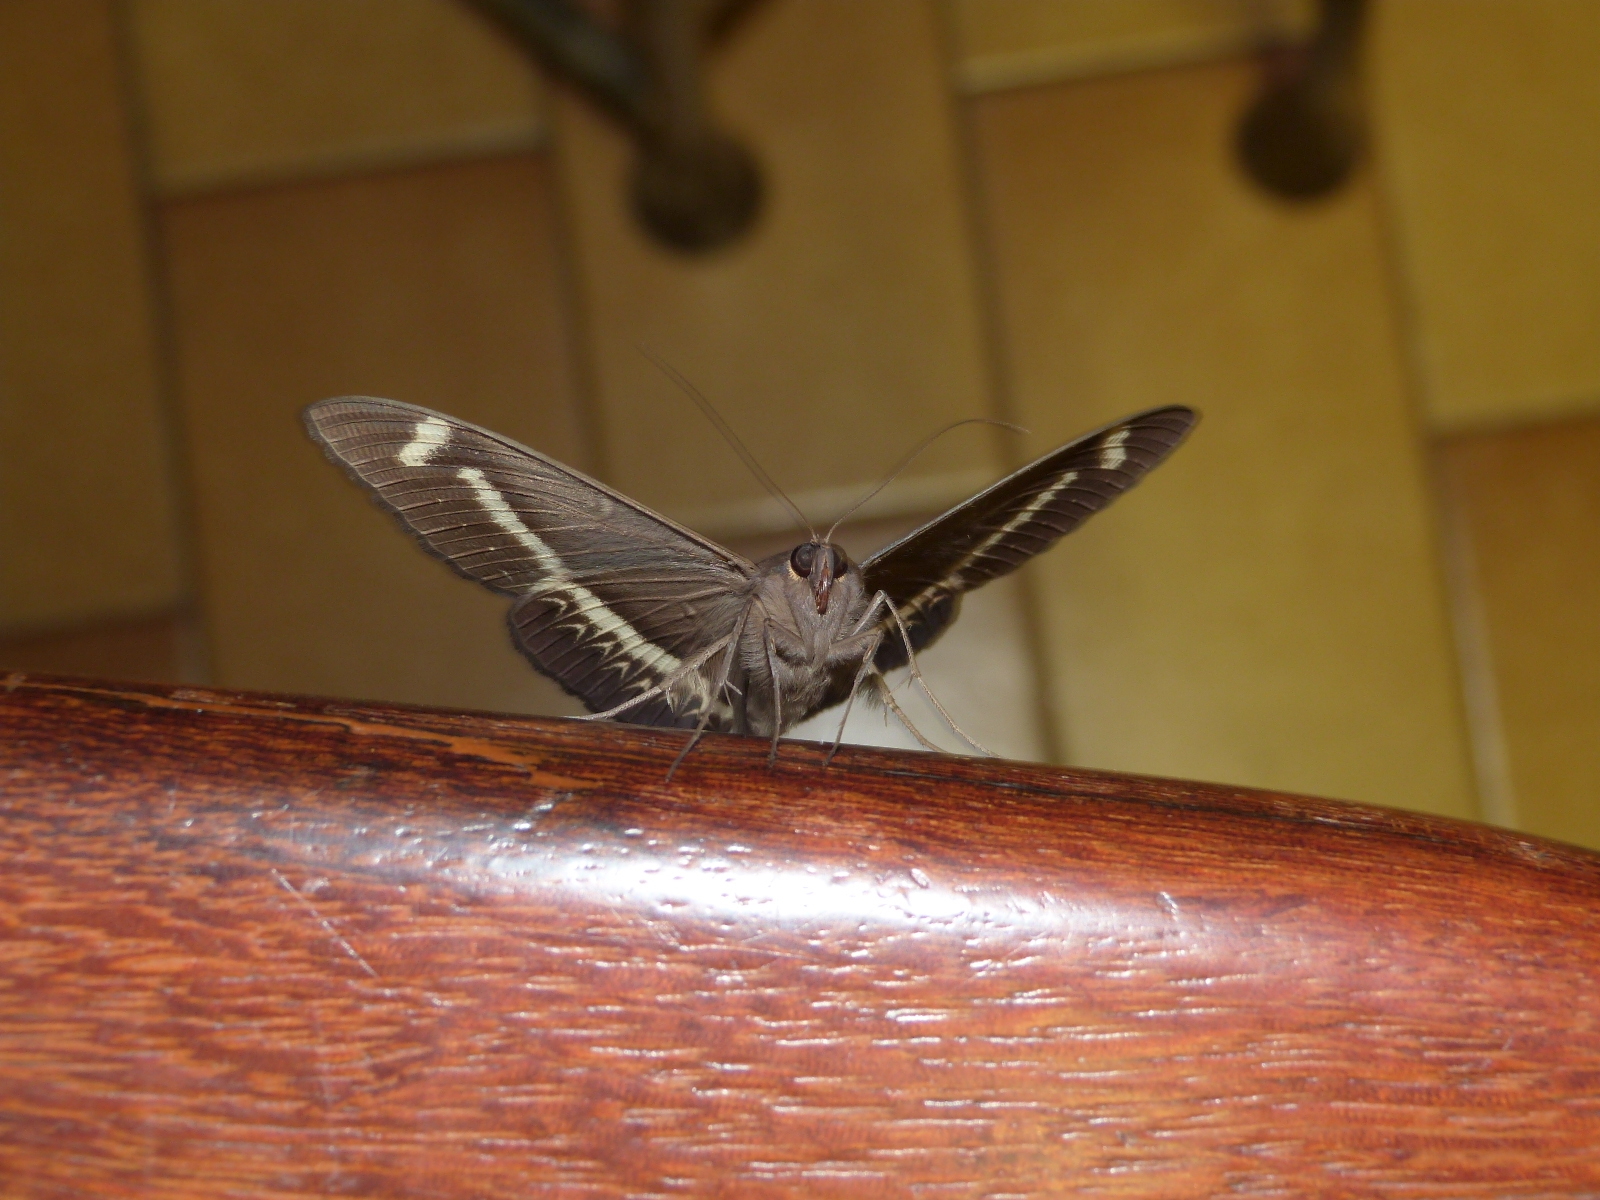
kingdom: Animalia
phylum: Arthropoda
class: Insecta
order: Lepidoptera
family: Erebidae
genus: Cyligramma
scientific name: Cyligramma latona
